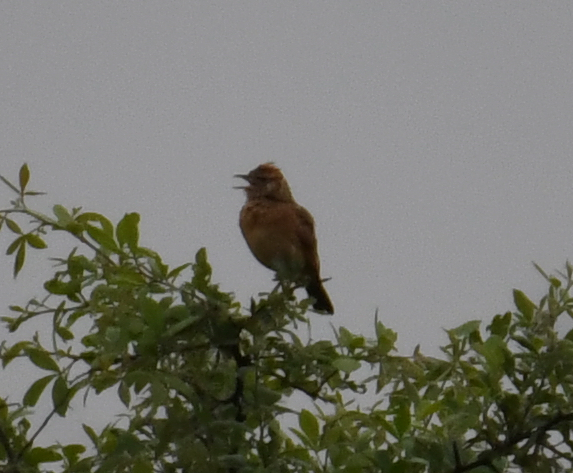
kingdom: Animalia
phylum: Chordata
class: Aves
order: Passeriformes
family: Alaudidae
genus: Mirafra
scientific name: Mirafra africana
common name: Rufous-naped lark
